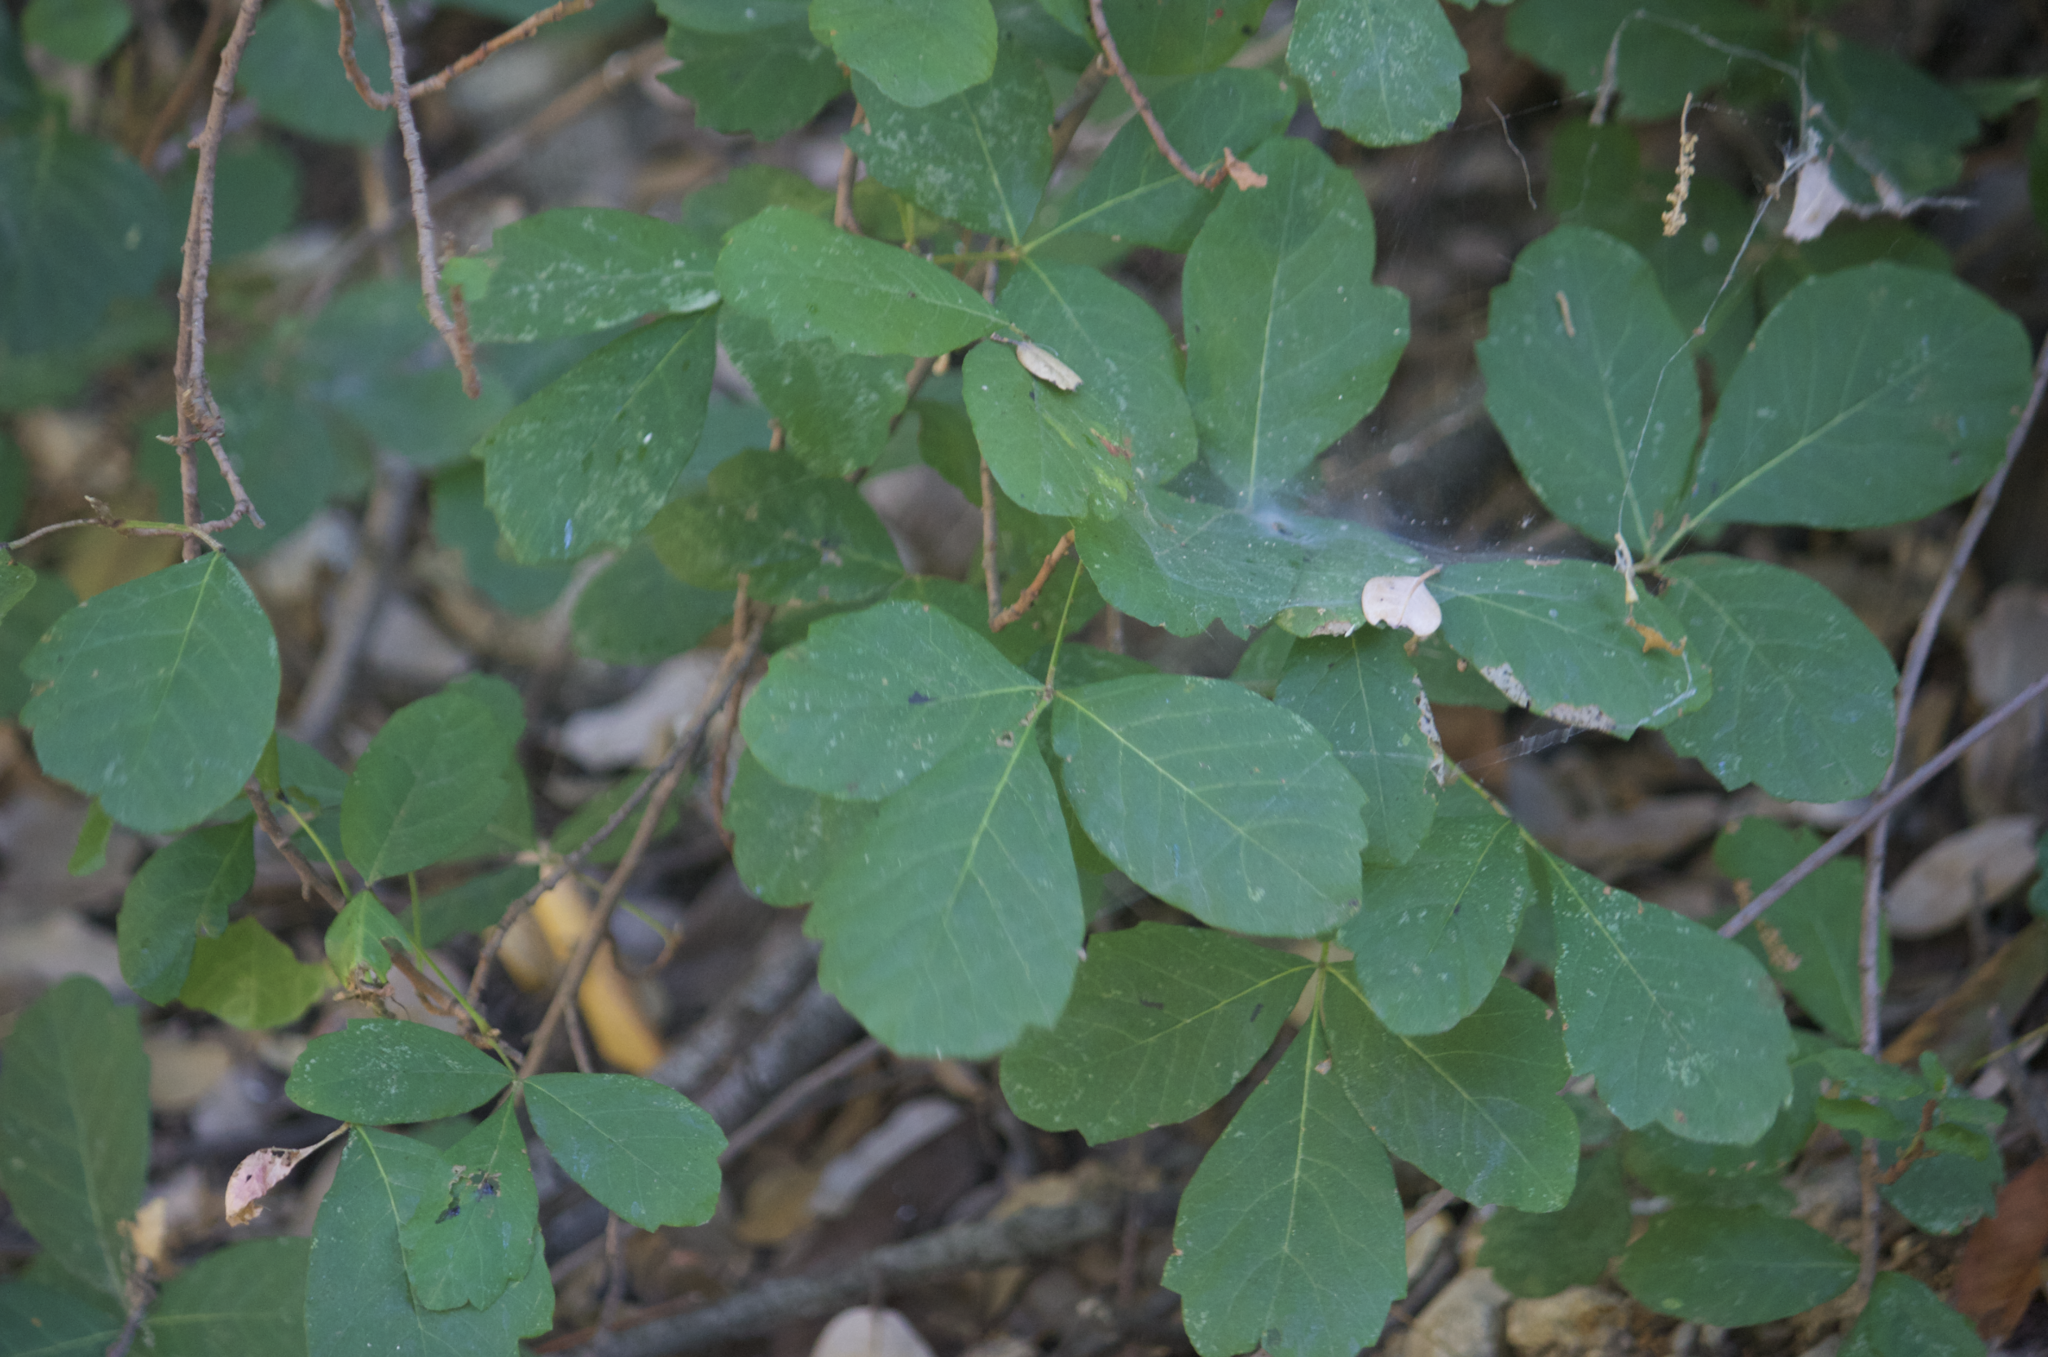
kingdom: Plantae
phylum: Tracheophyta
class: Magnoliopsida
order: Sapindales
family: Anacardiaceae
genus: Toxicodendron
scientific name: Toxicodendron diversilobum
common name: Pacific poison-oak
